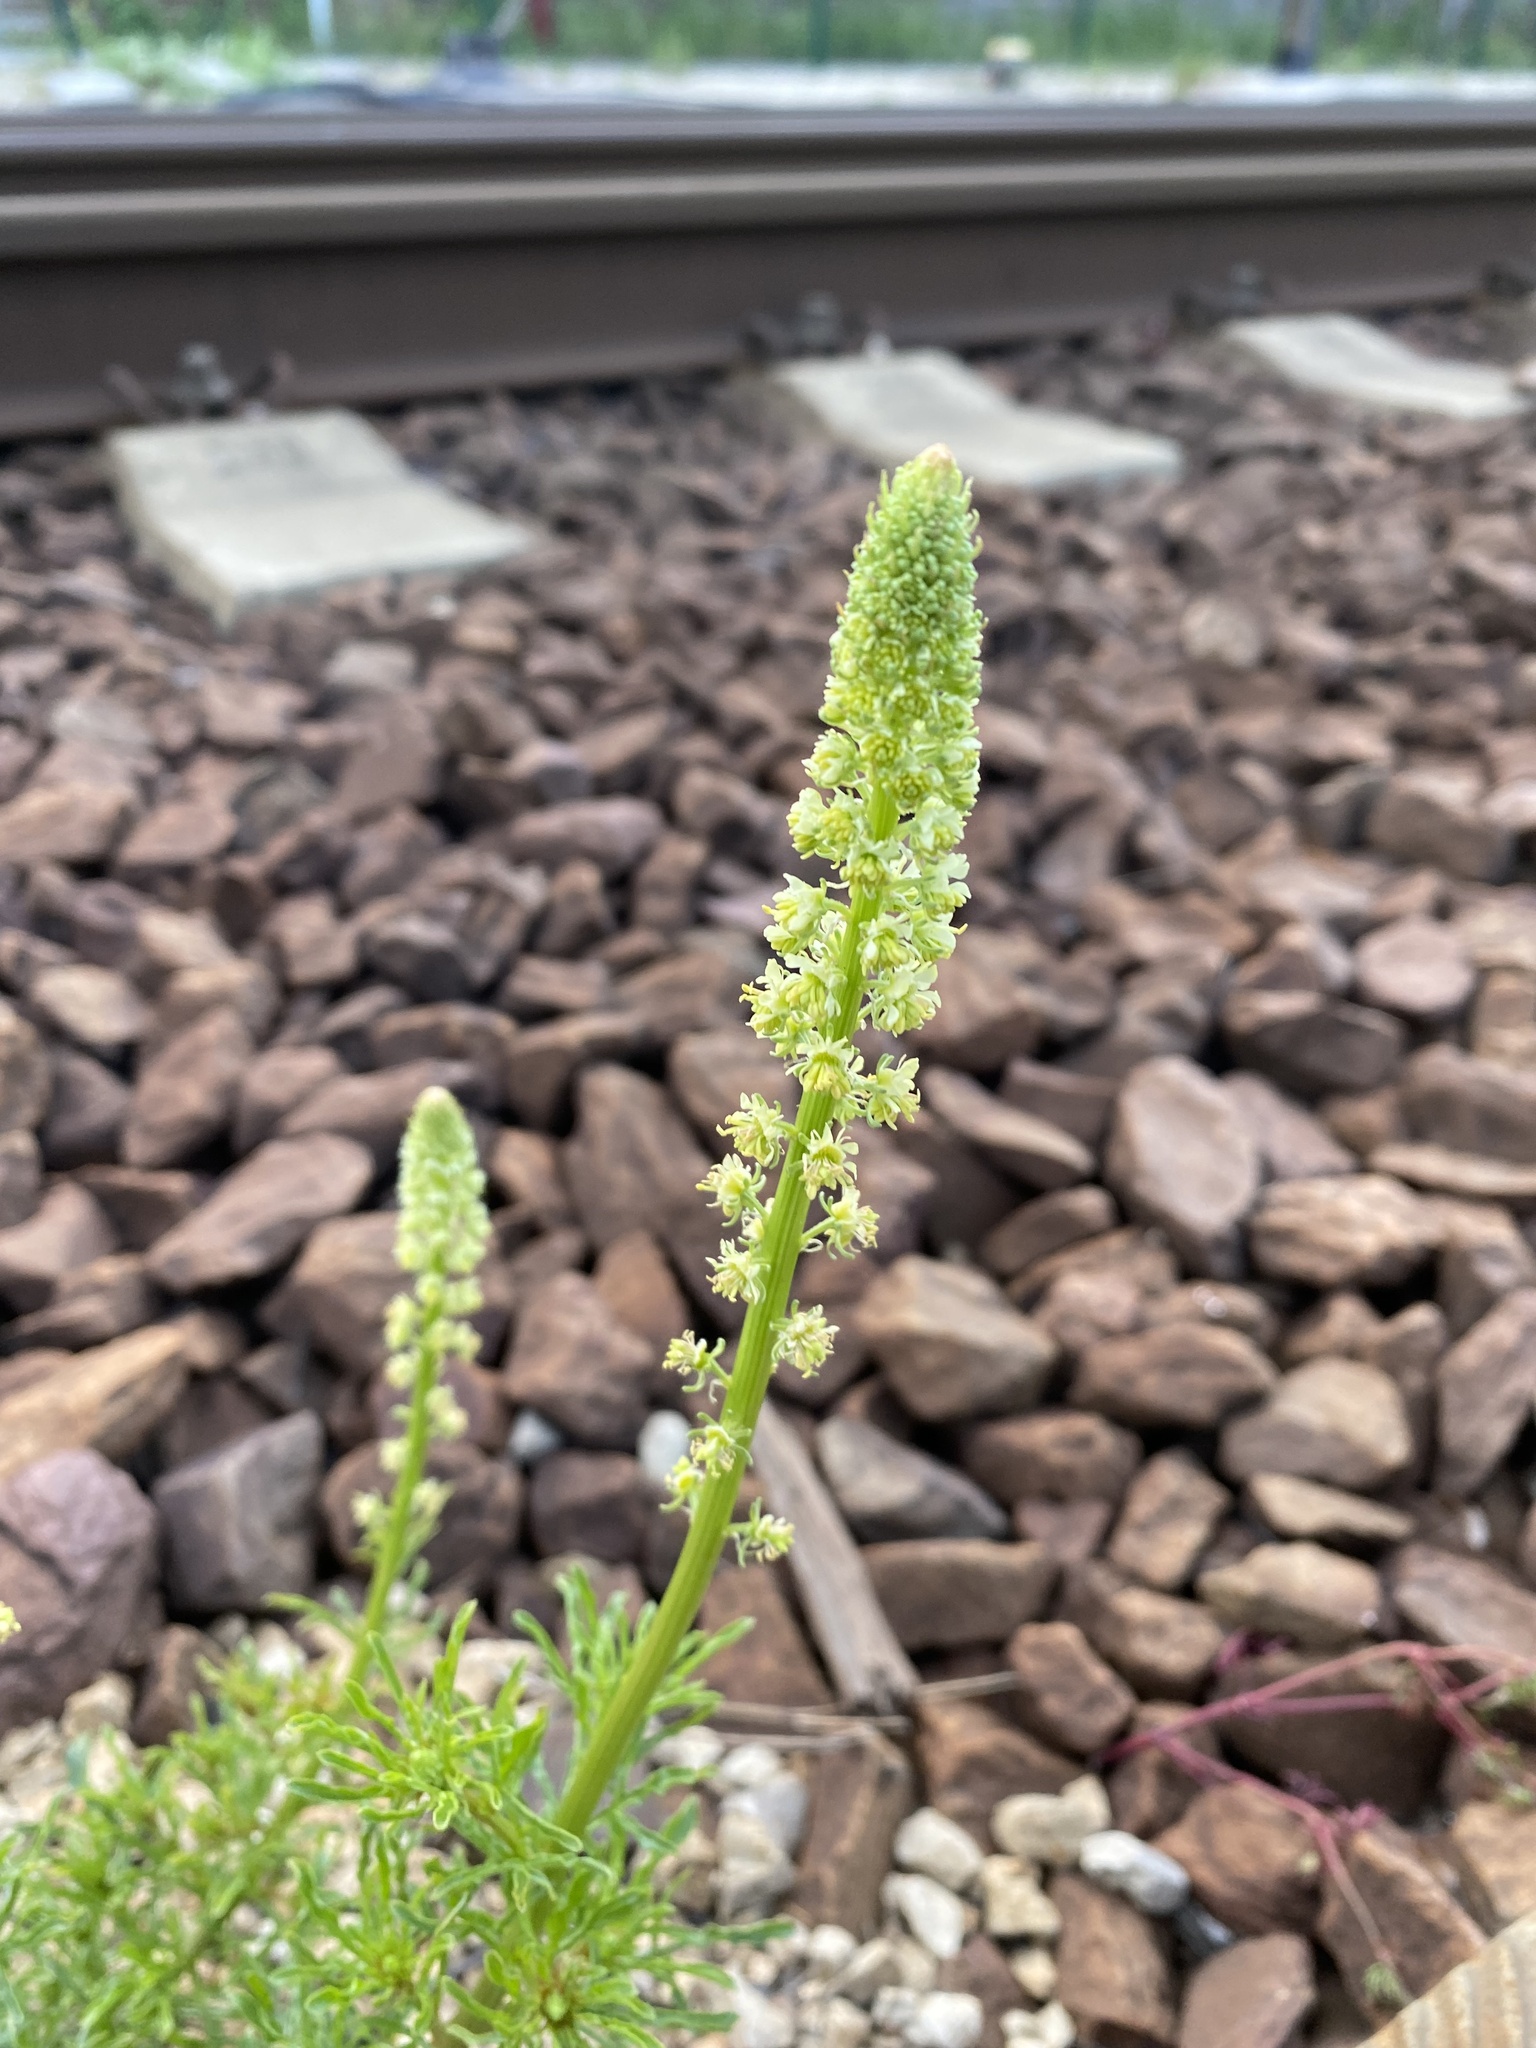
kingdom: Plantae
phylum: Tracheophyta
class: Magnoliopsida
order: Brassicales
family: Resedaceae
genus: Reseda
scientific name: Reseda lutea
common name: Wild mignonette
